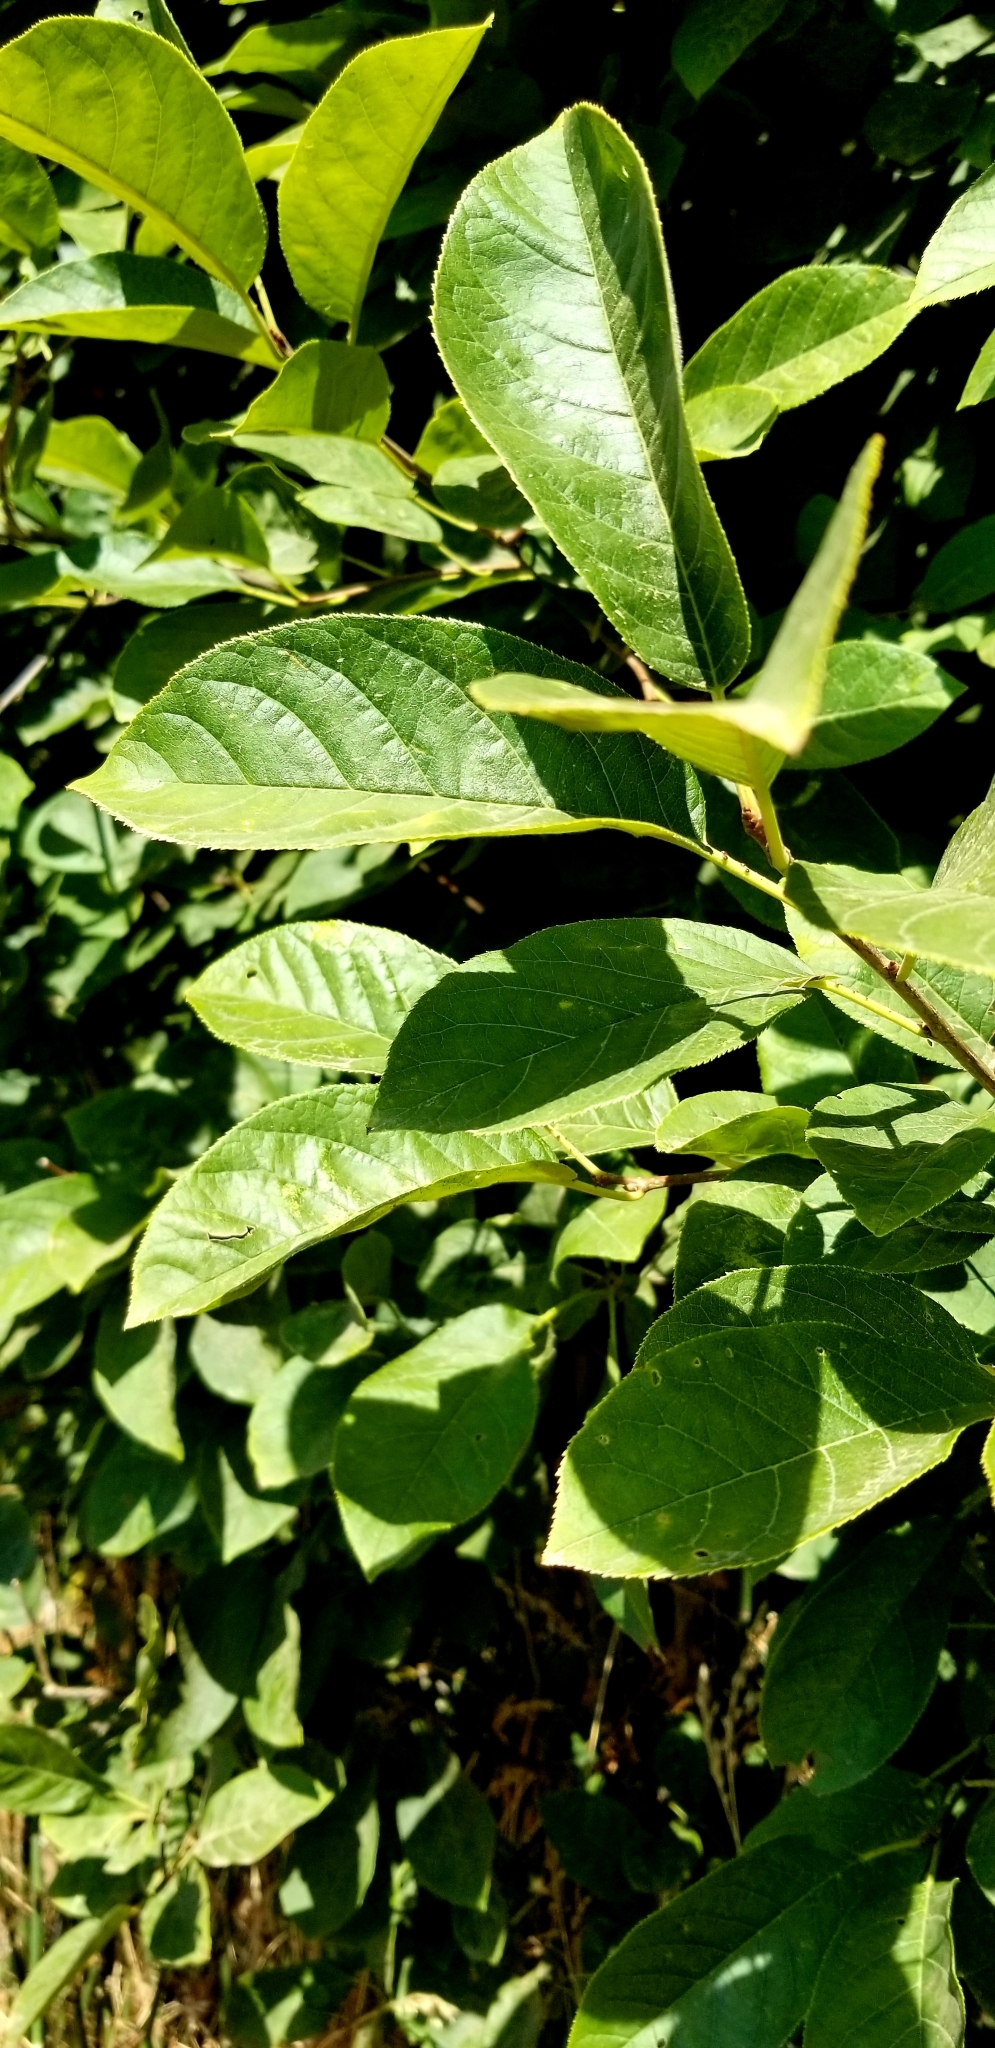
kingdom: Plantae
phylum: Tracheophyta
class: Magnoliopsida
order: Rosales
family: Rosaceae
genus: Prunus
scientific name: Prunus virginiana
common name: Chokecherry
